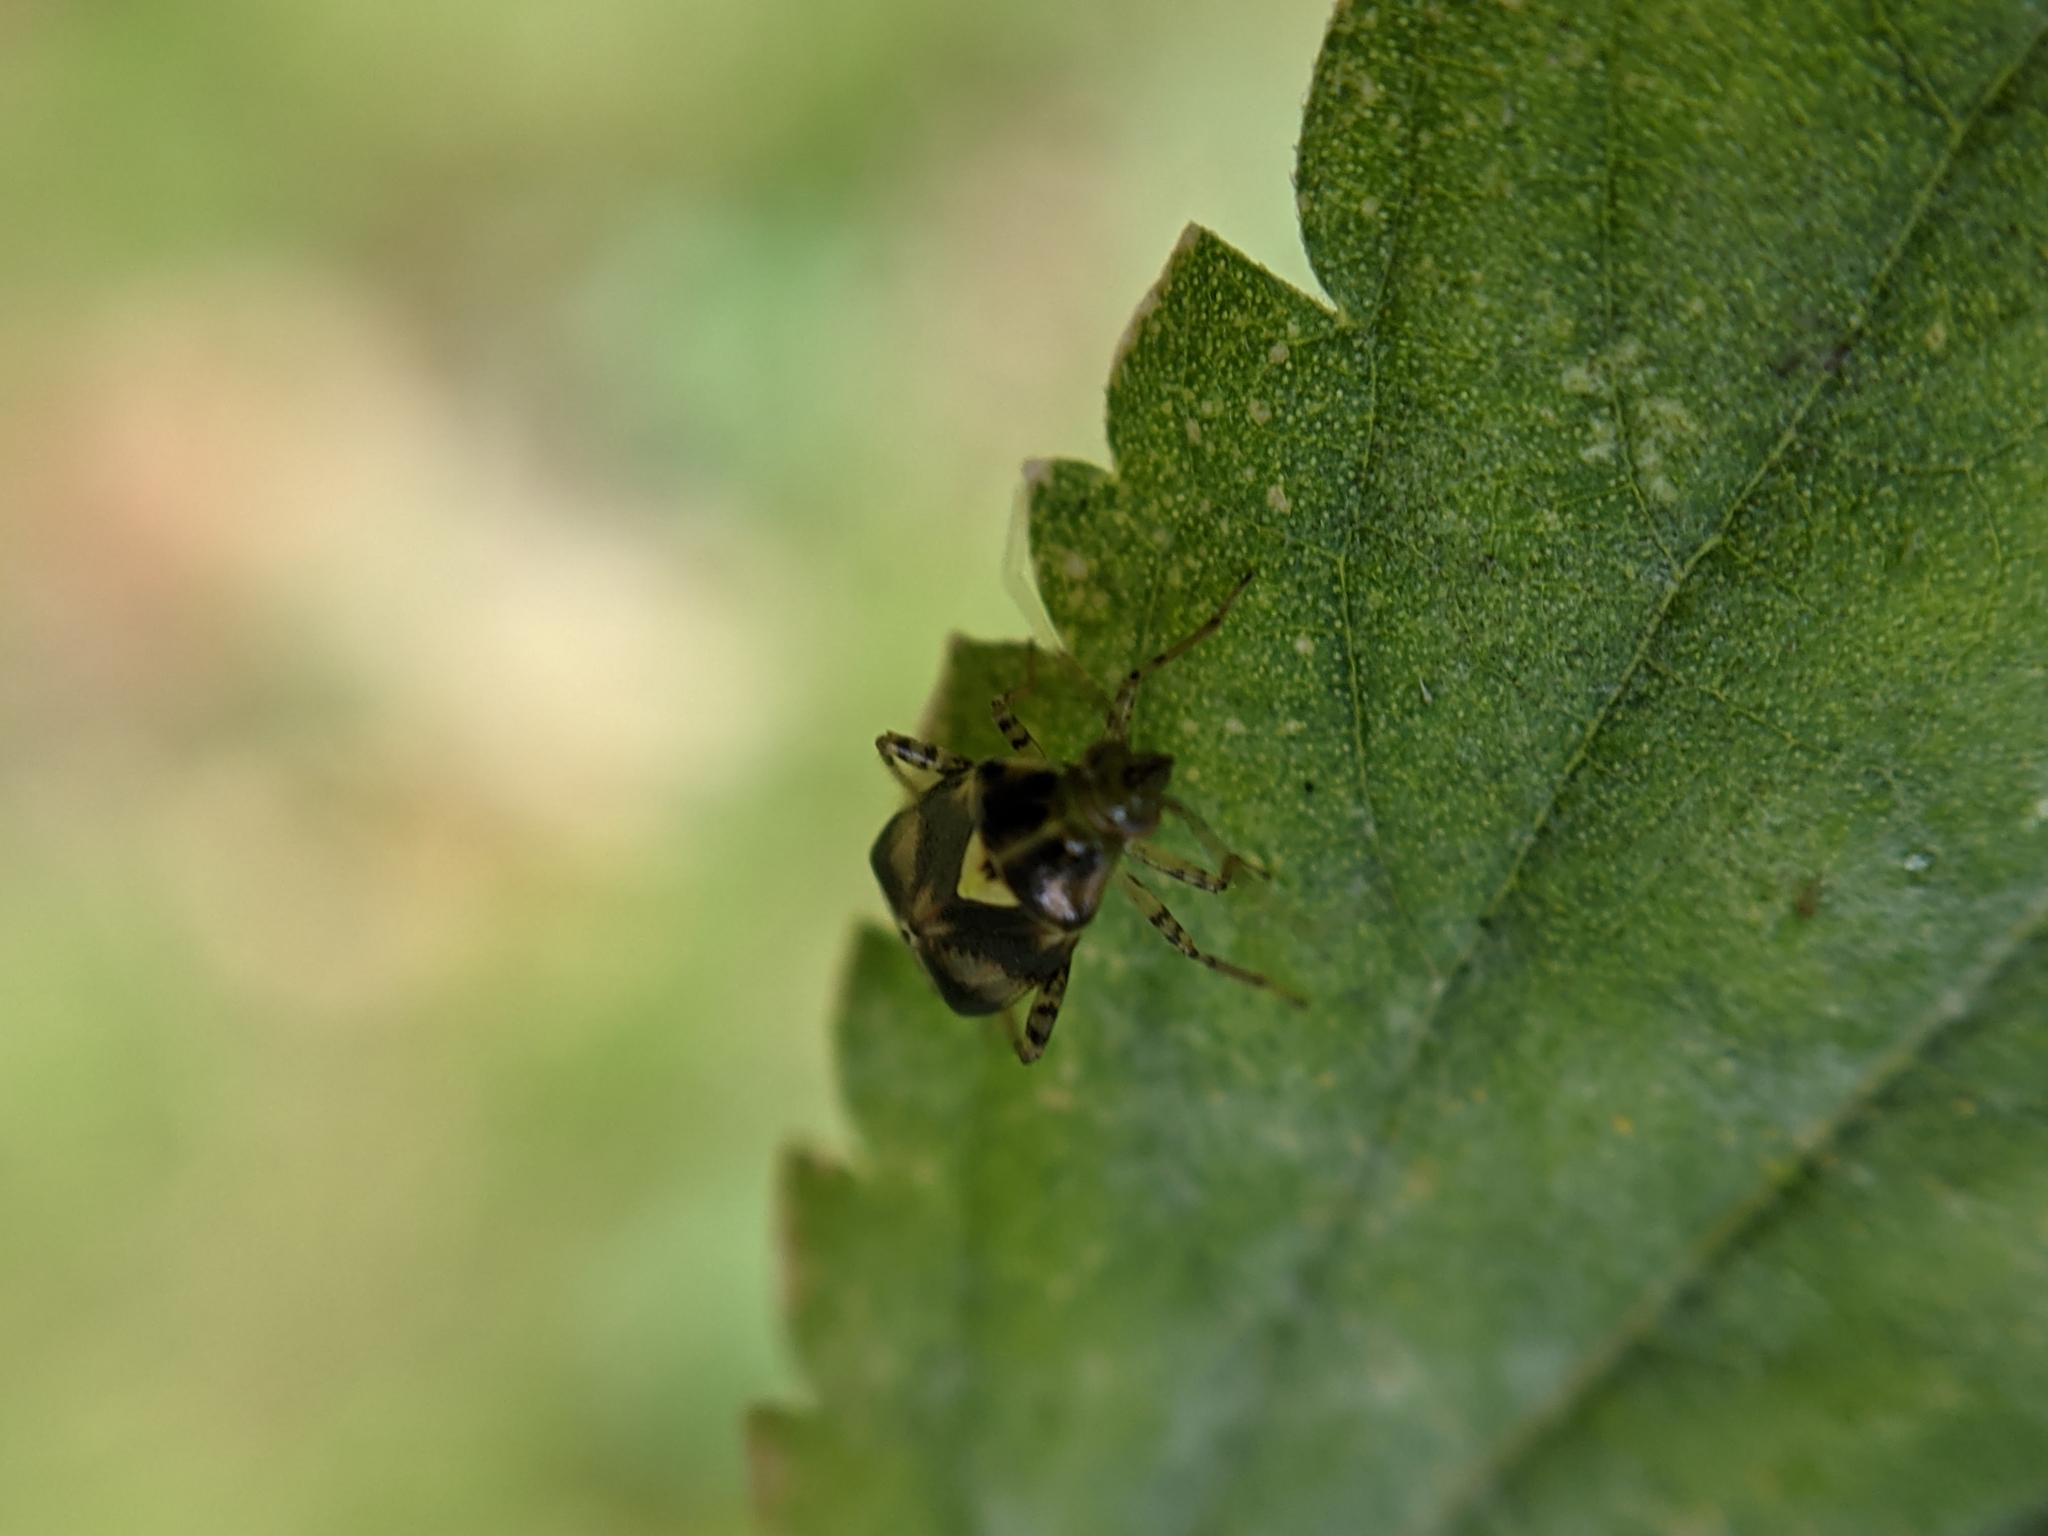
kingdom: Animalia
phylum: Arthropoda
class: Insecta
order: Hemiptera
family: Miridae
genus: Liocoris
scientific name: Liocoris tripustulatus
